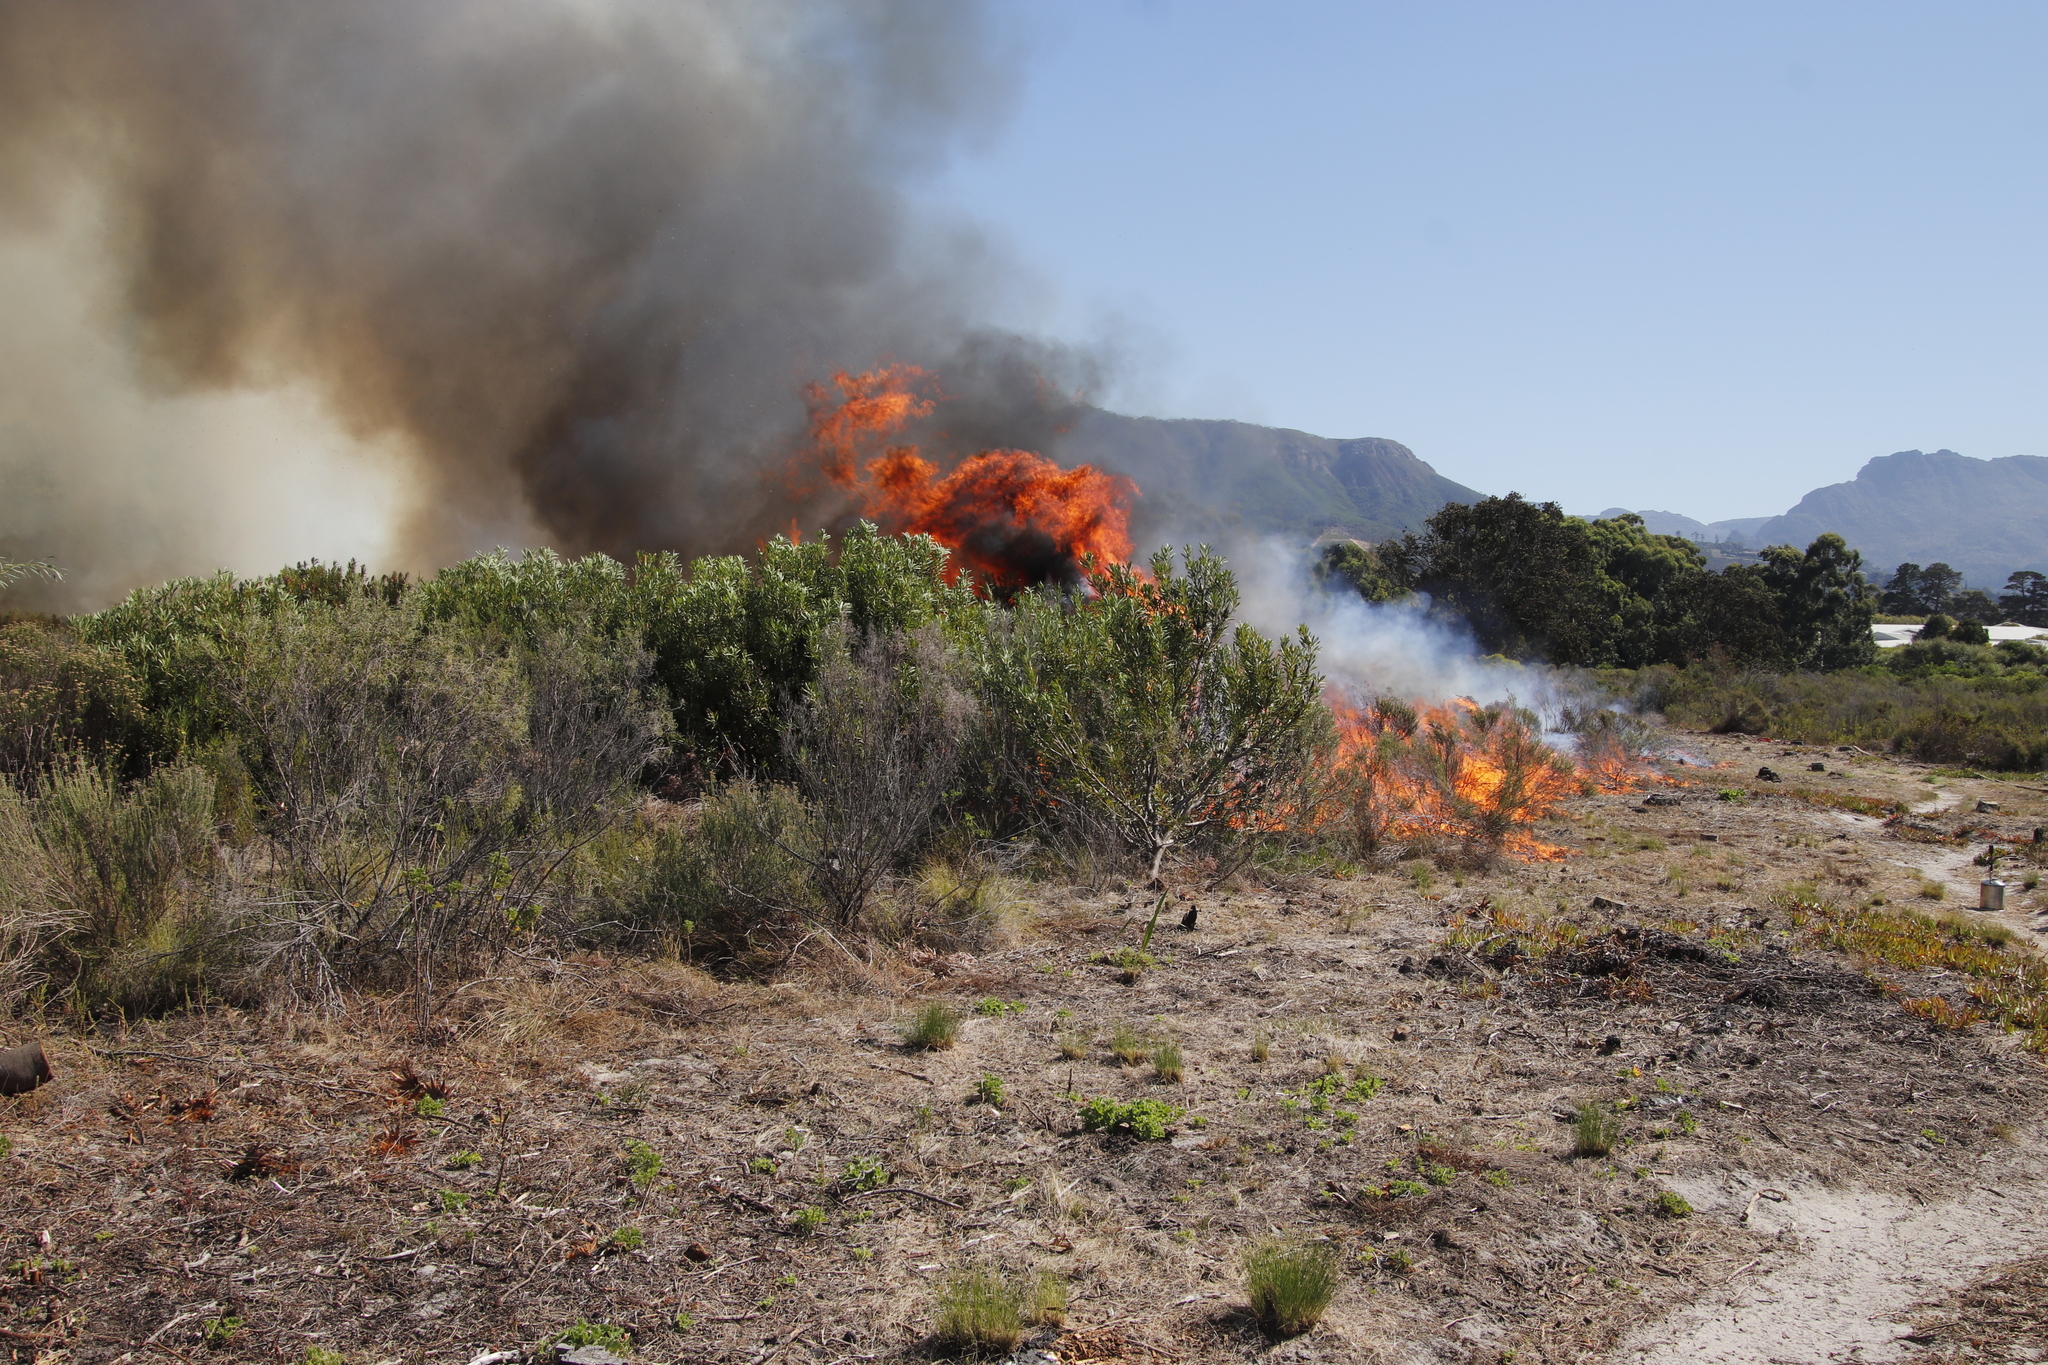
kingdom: Plantae
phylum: Tracheophyta
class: Magnoliopsida
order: Proteales
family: Proteaceae
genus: Protea
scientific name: Protea repens
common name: Sugarbush
